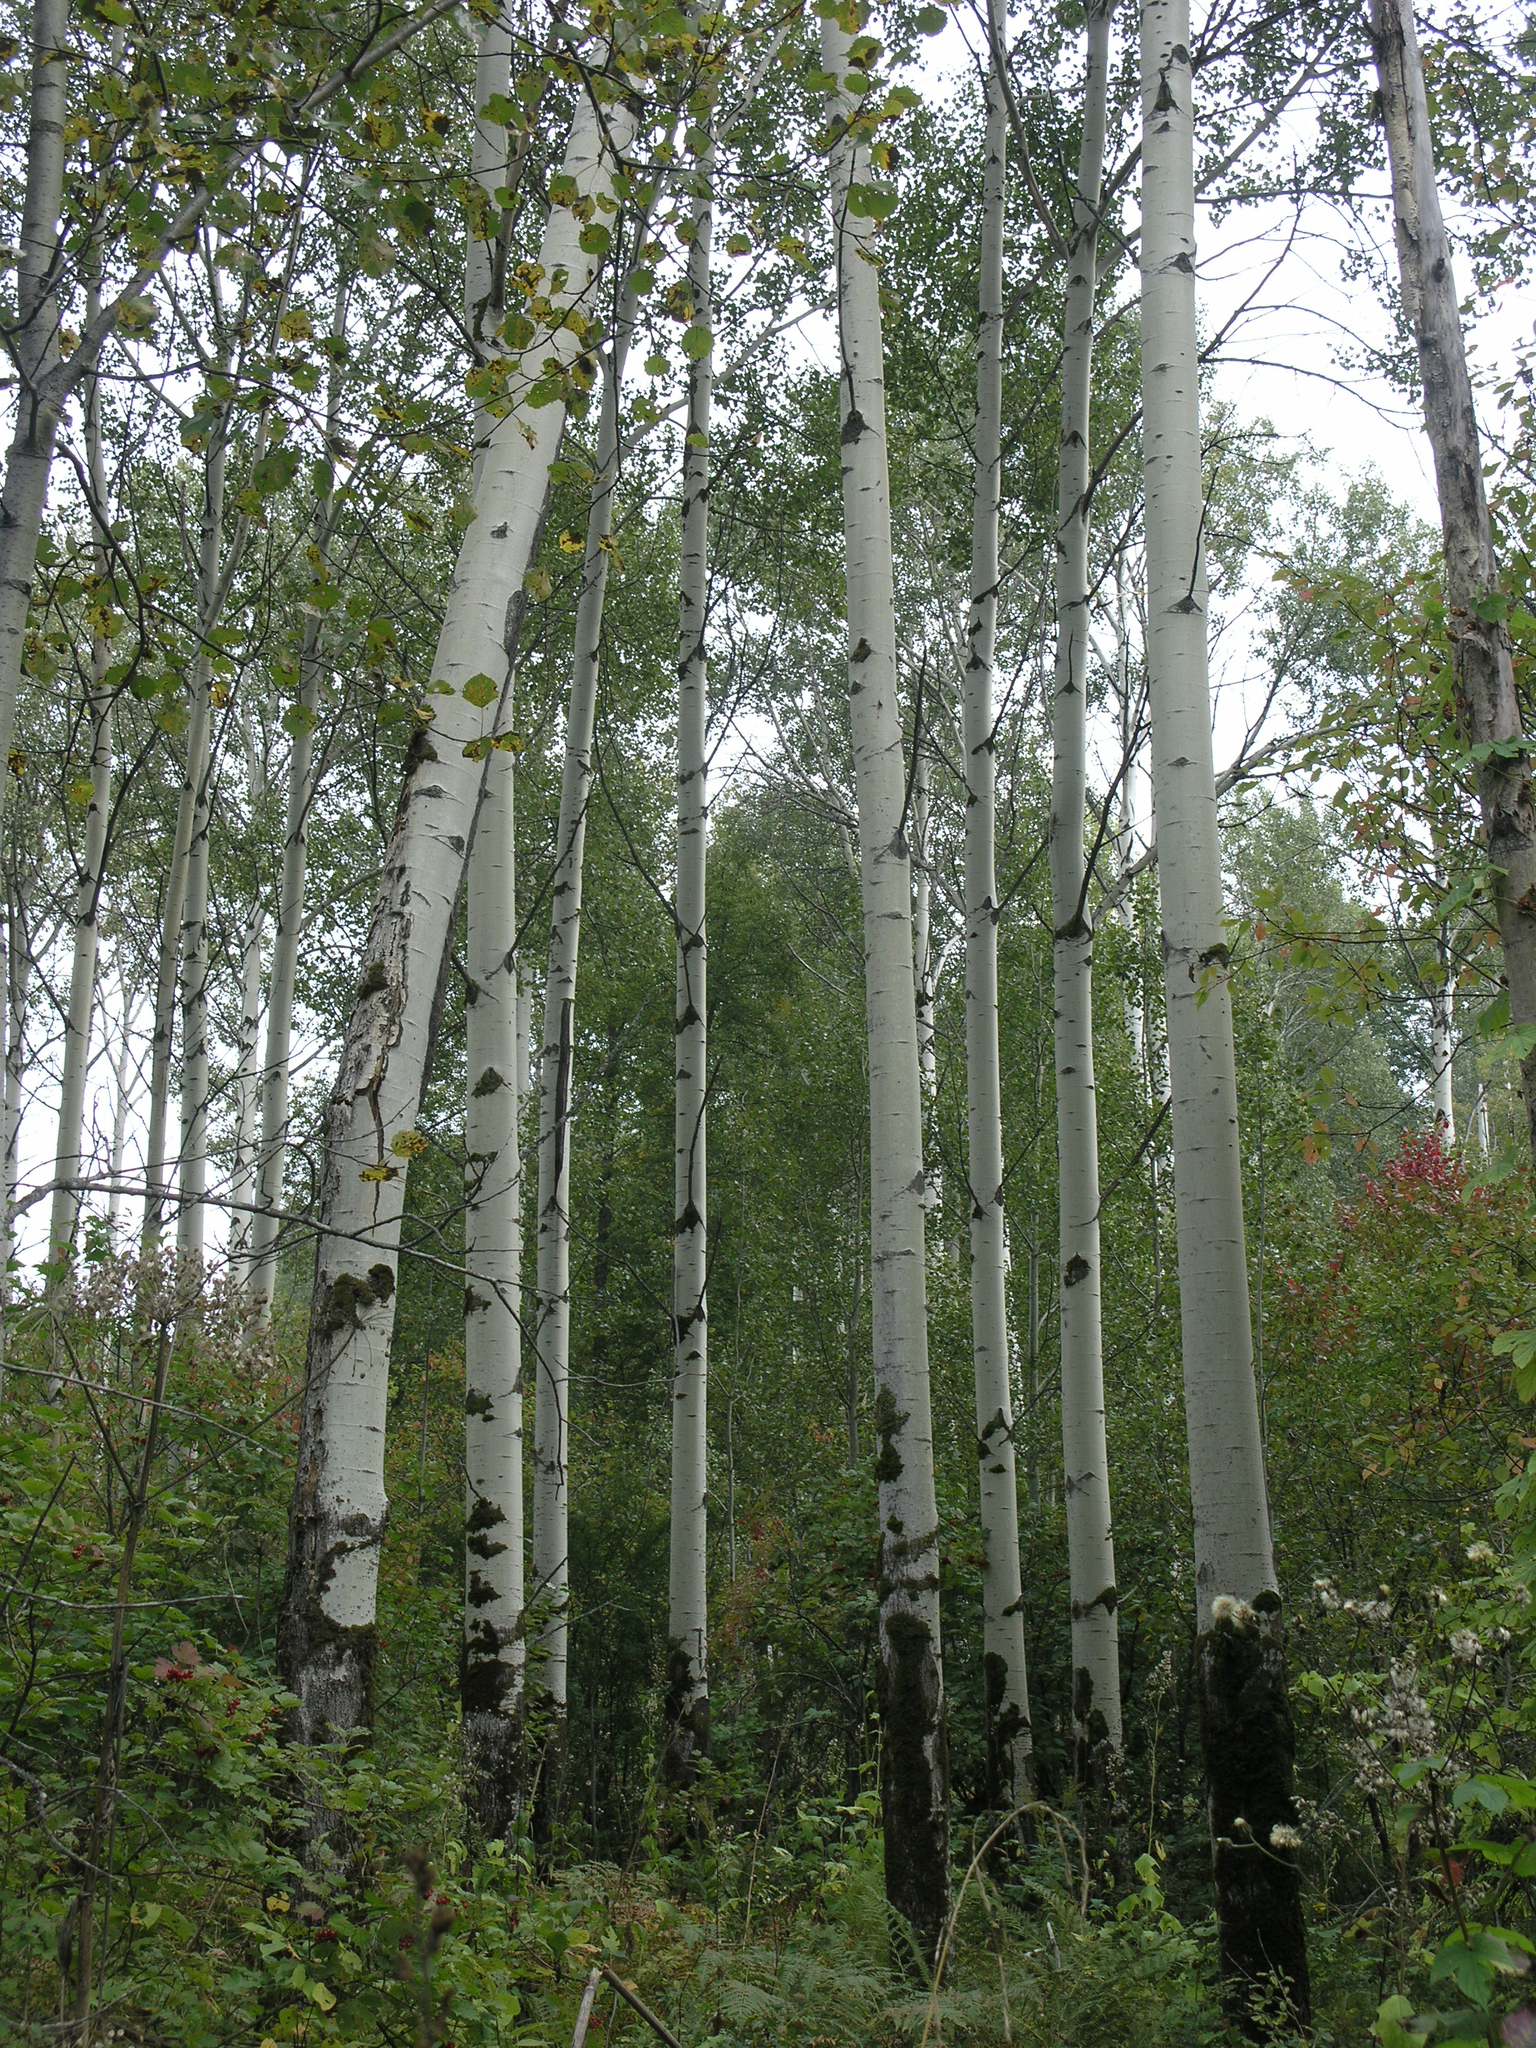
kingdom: Plantae
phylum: Tracheophyta
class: Magnoliopsida
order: Malpighiales
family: Salicaceae
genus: Populus
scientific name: Populus tremula
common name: European aspen
